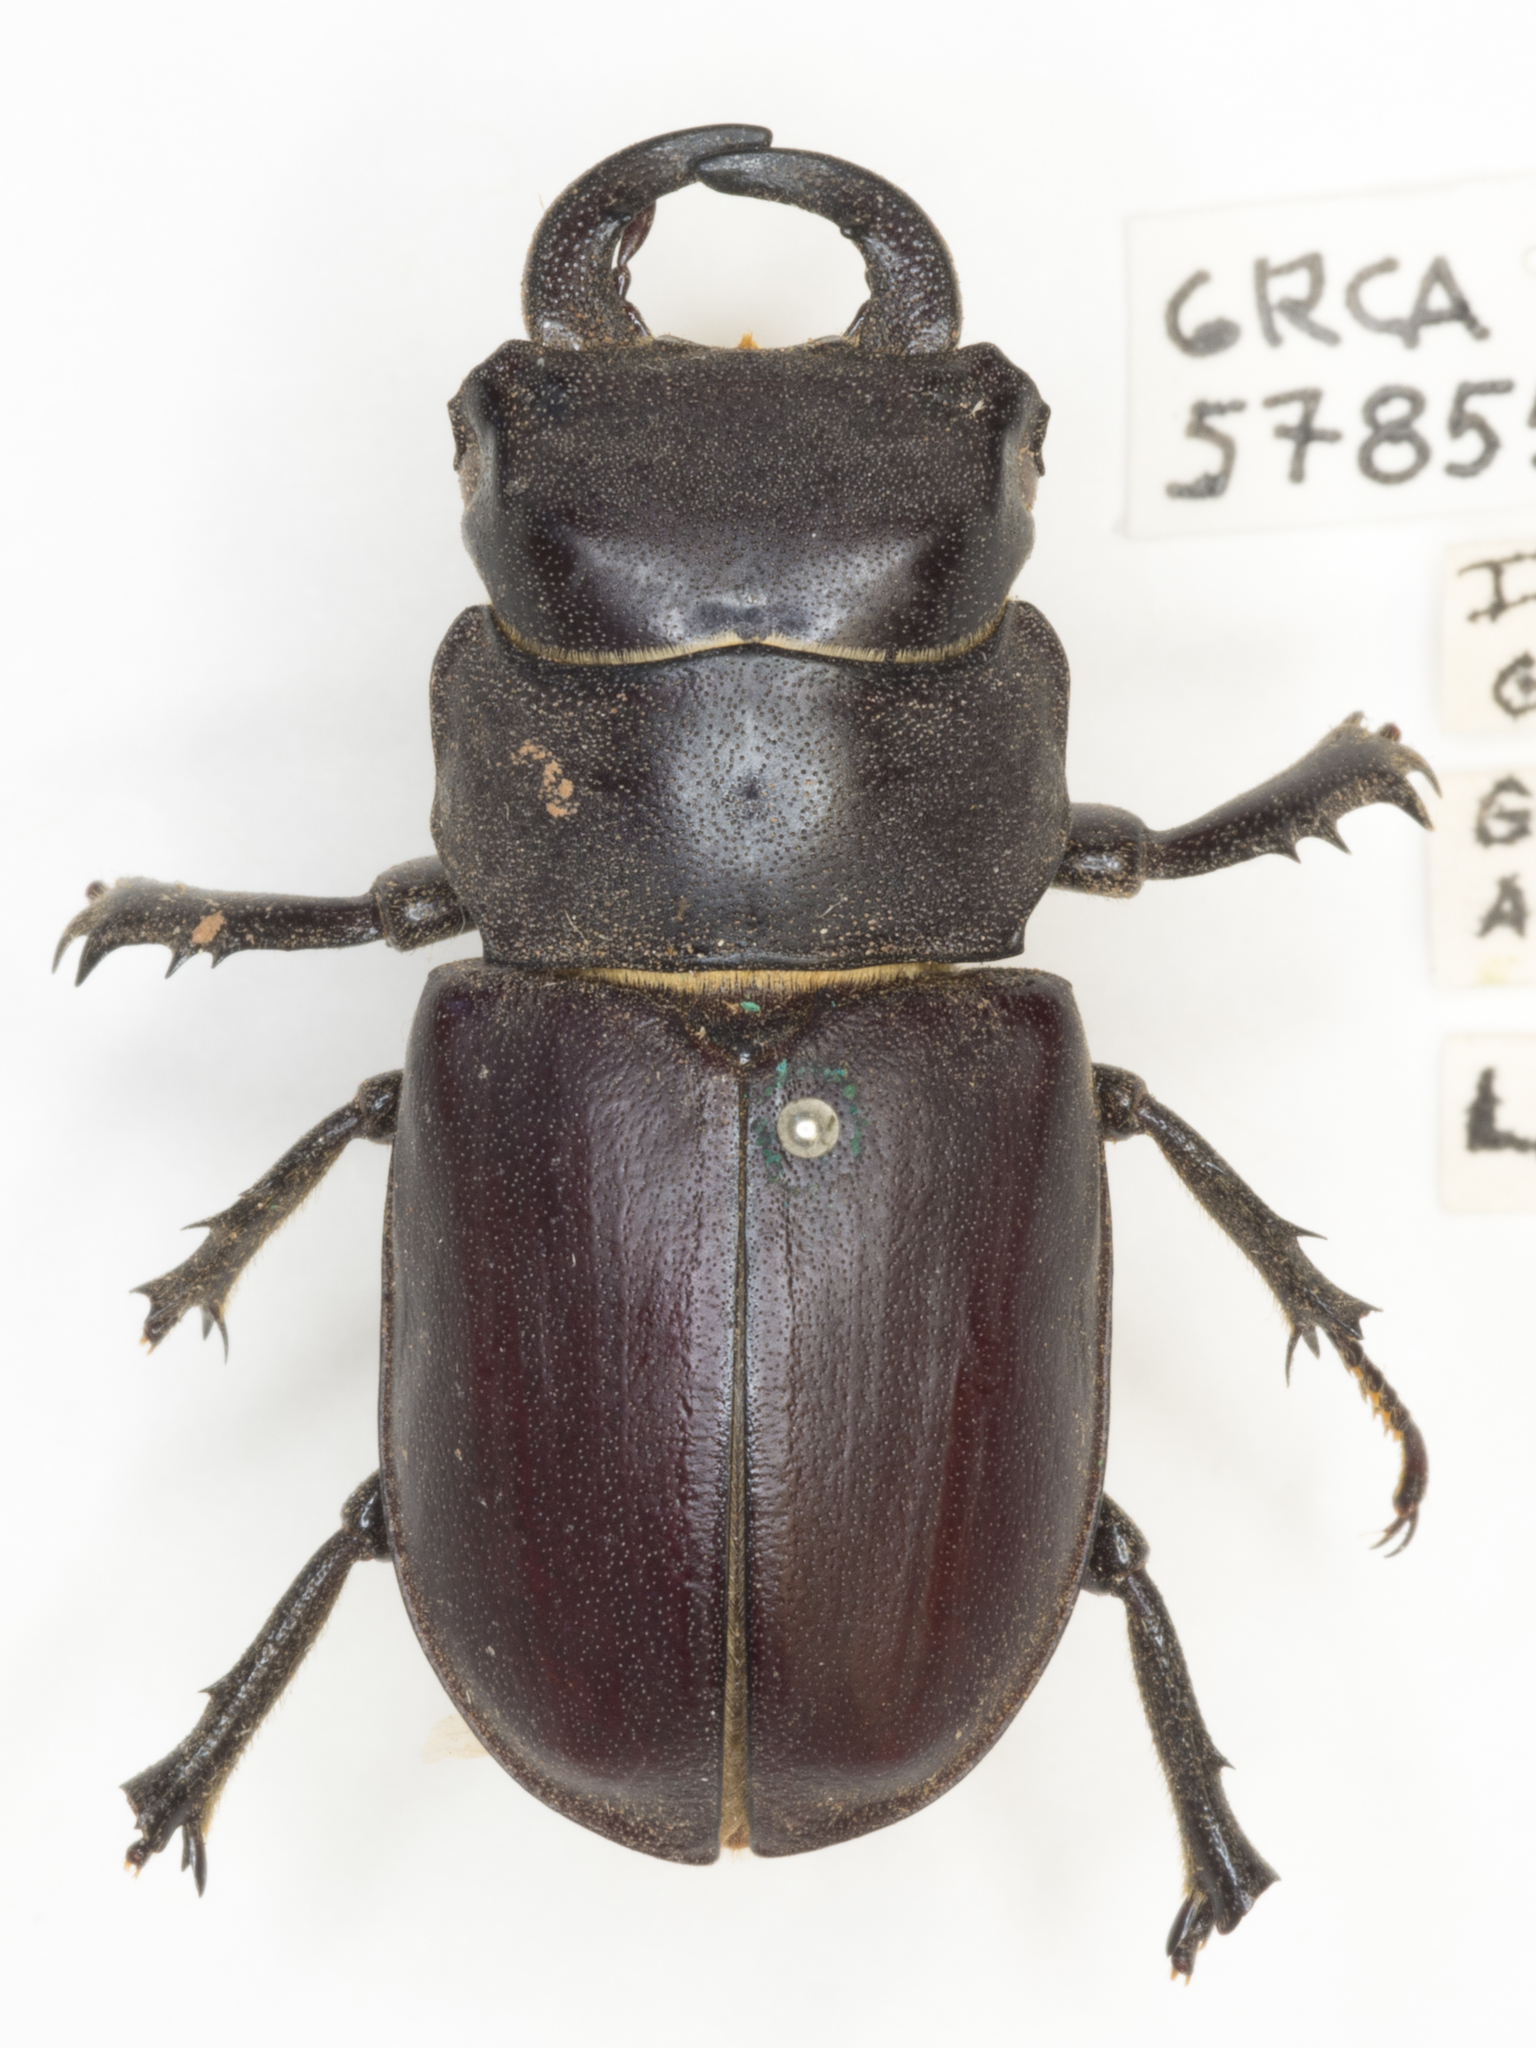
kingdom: Animalia
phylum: Arthropoda
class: Insecta
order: Coleoptera
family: Lucanidae
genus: Lucanus
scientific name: Lucanus mazama
